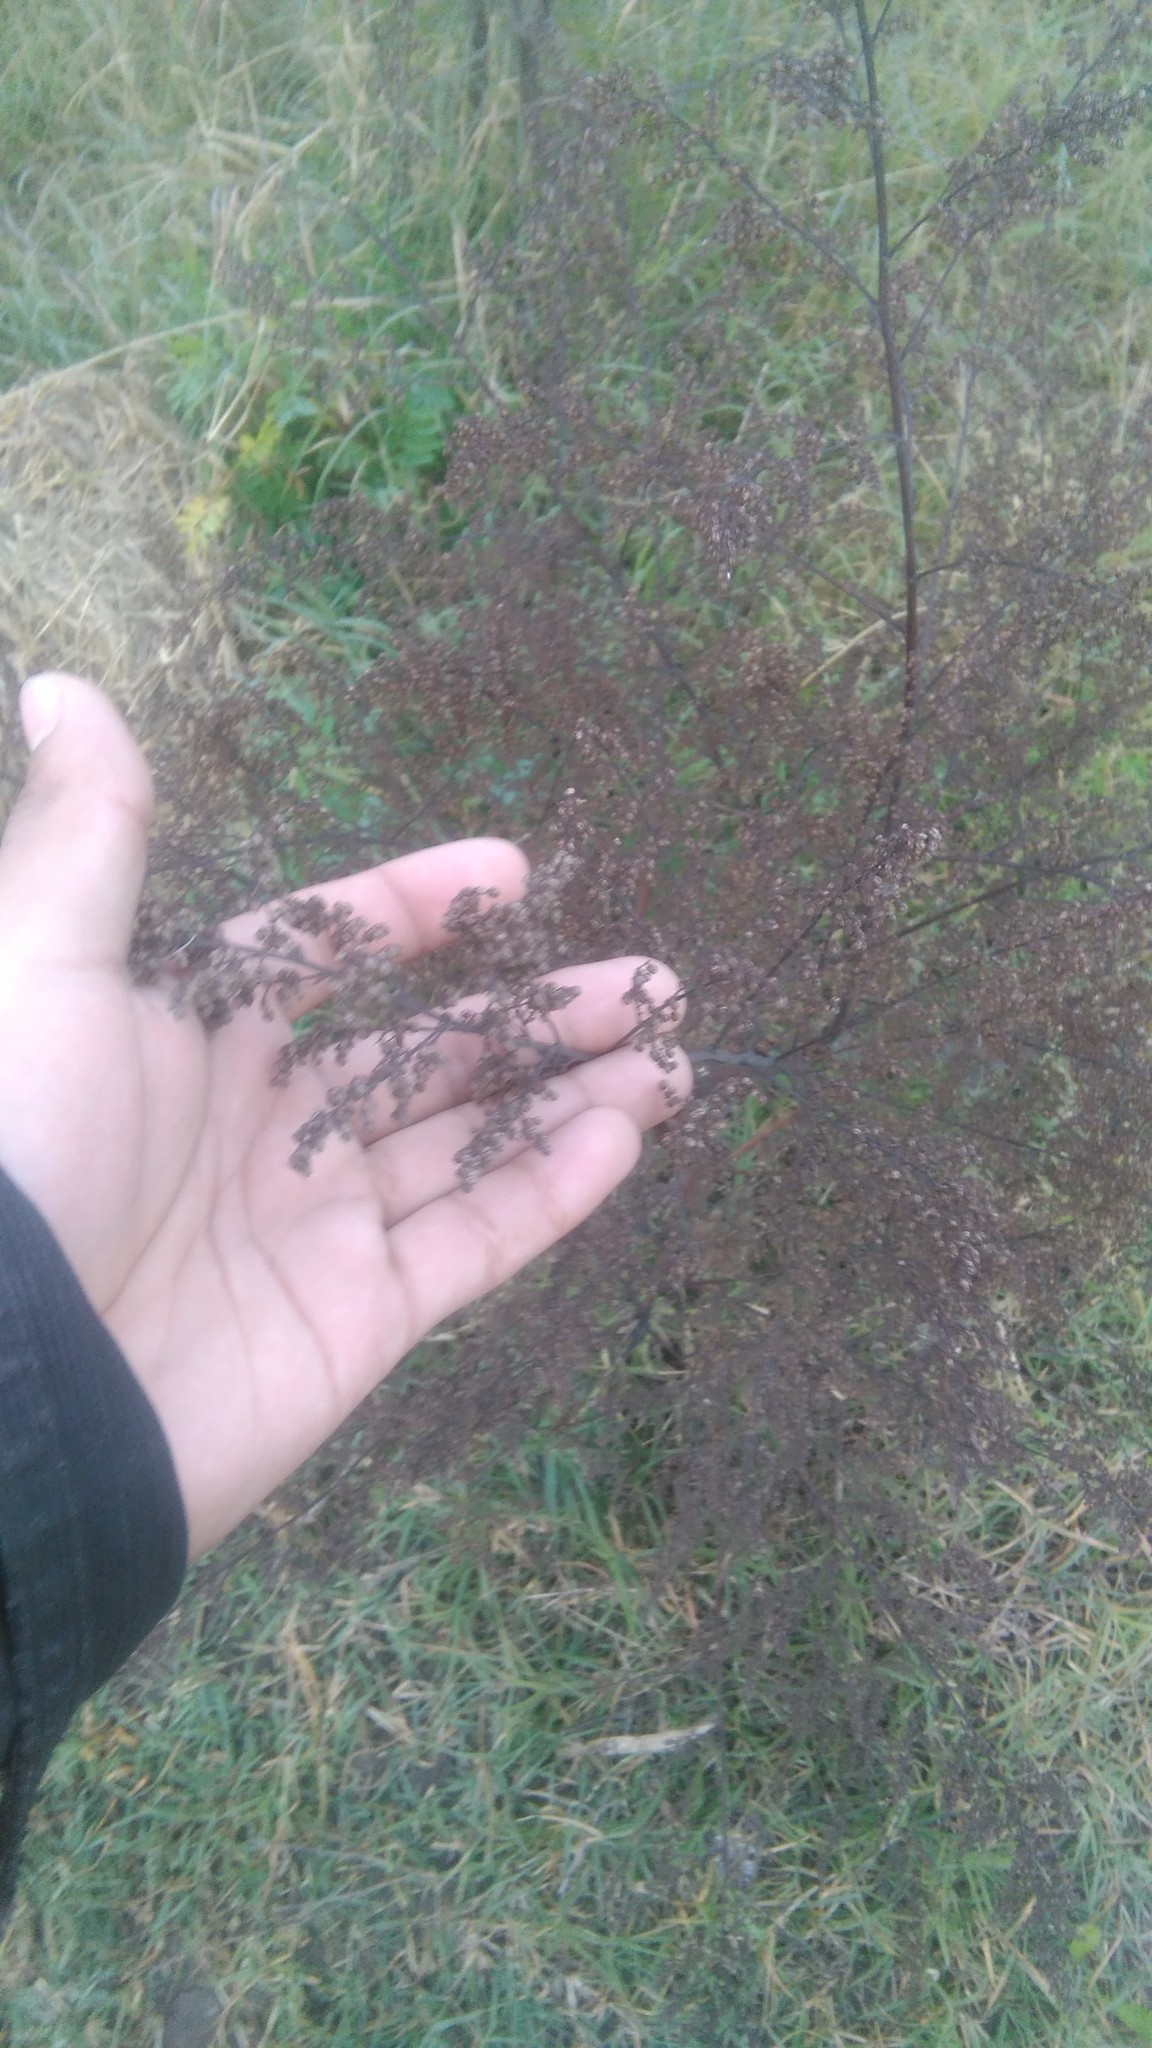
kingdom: Plantae
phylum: Tracheophyta
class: Magnoliopsida
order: Asterales
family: Asteraceae
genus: Artemisia
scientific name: Artemisia annua
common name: Sweet sagewort
